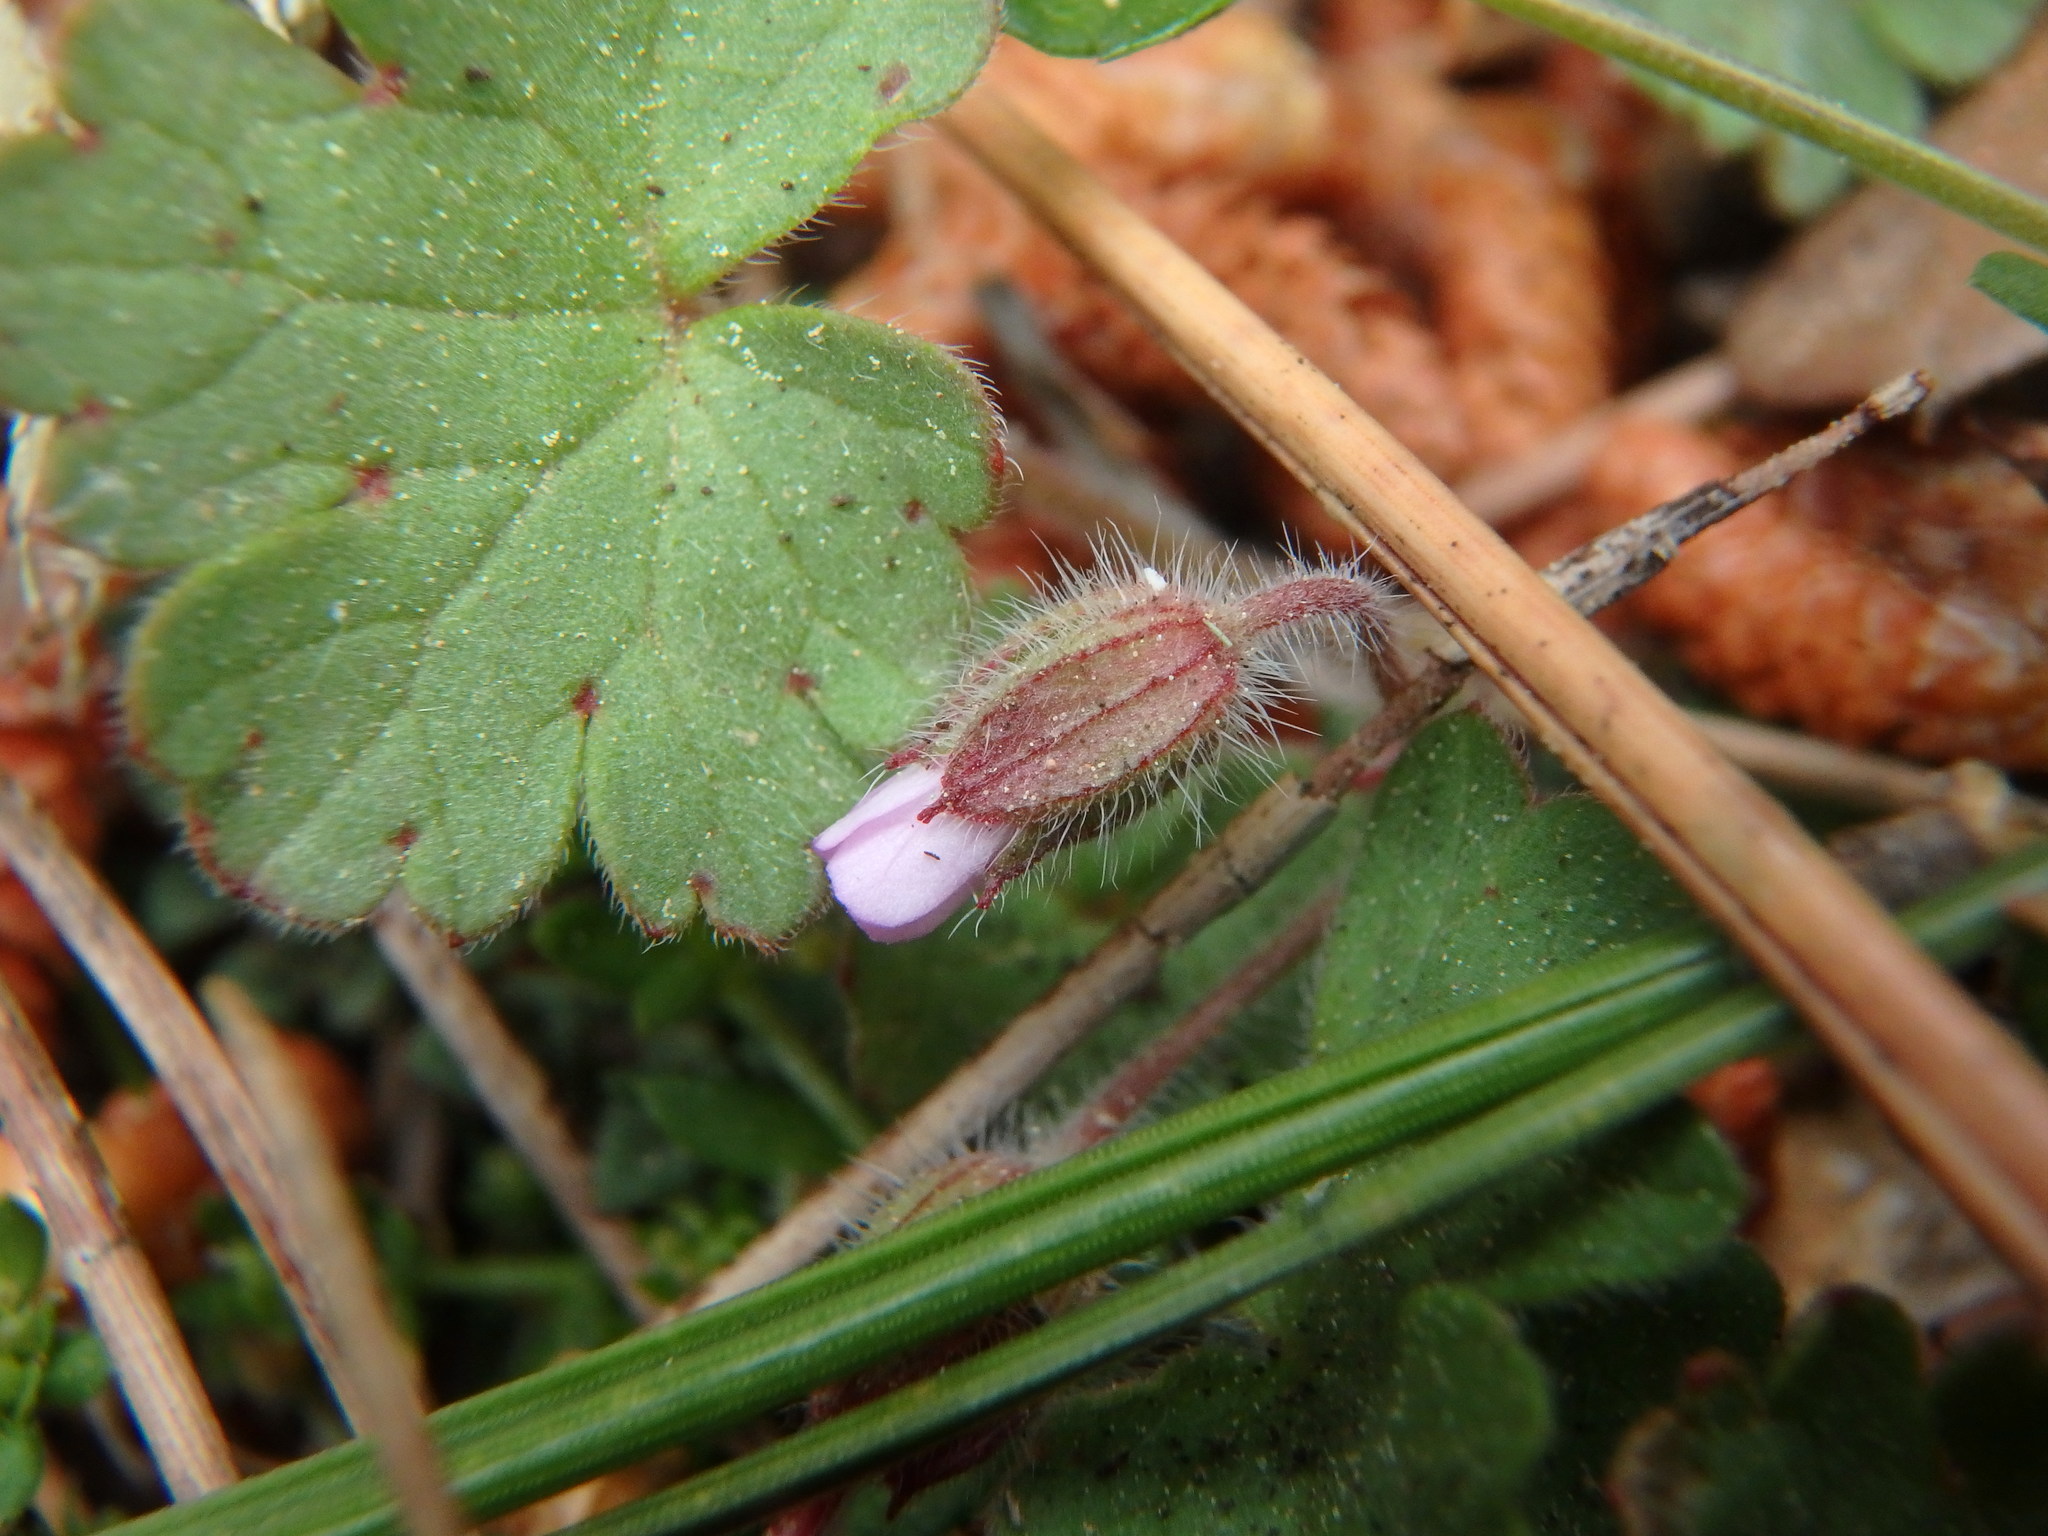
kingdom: Plantae
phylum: Tracheophyta
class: Magnoliopsida
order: Geraniales
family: Geraniaceae
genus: Geranium
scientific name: Geranium rotundifolium
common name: Round-leaved crane's-bill
